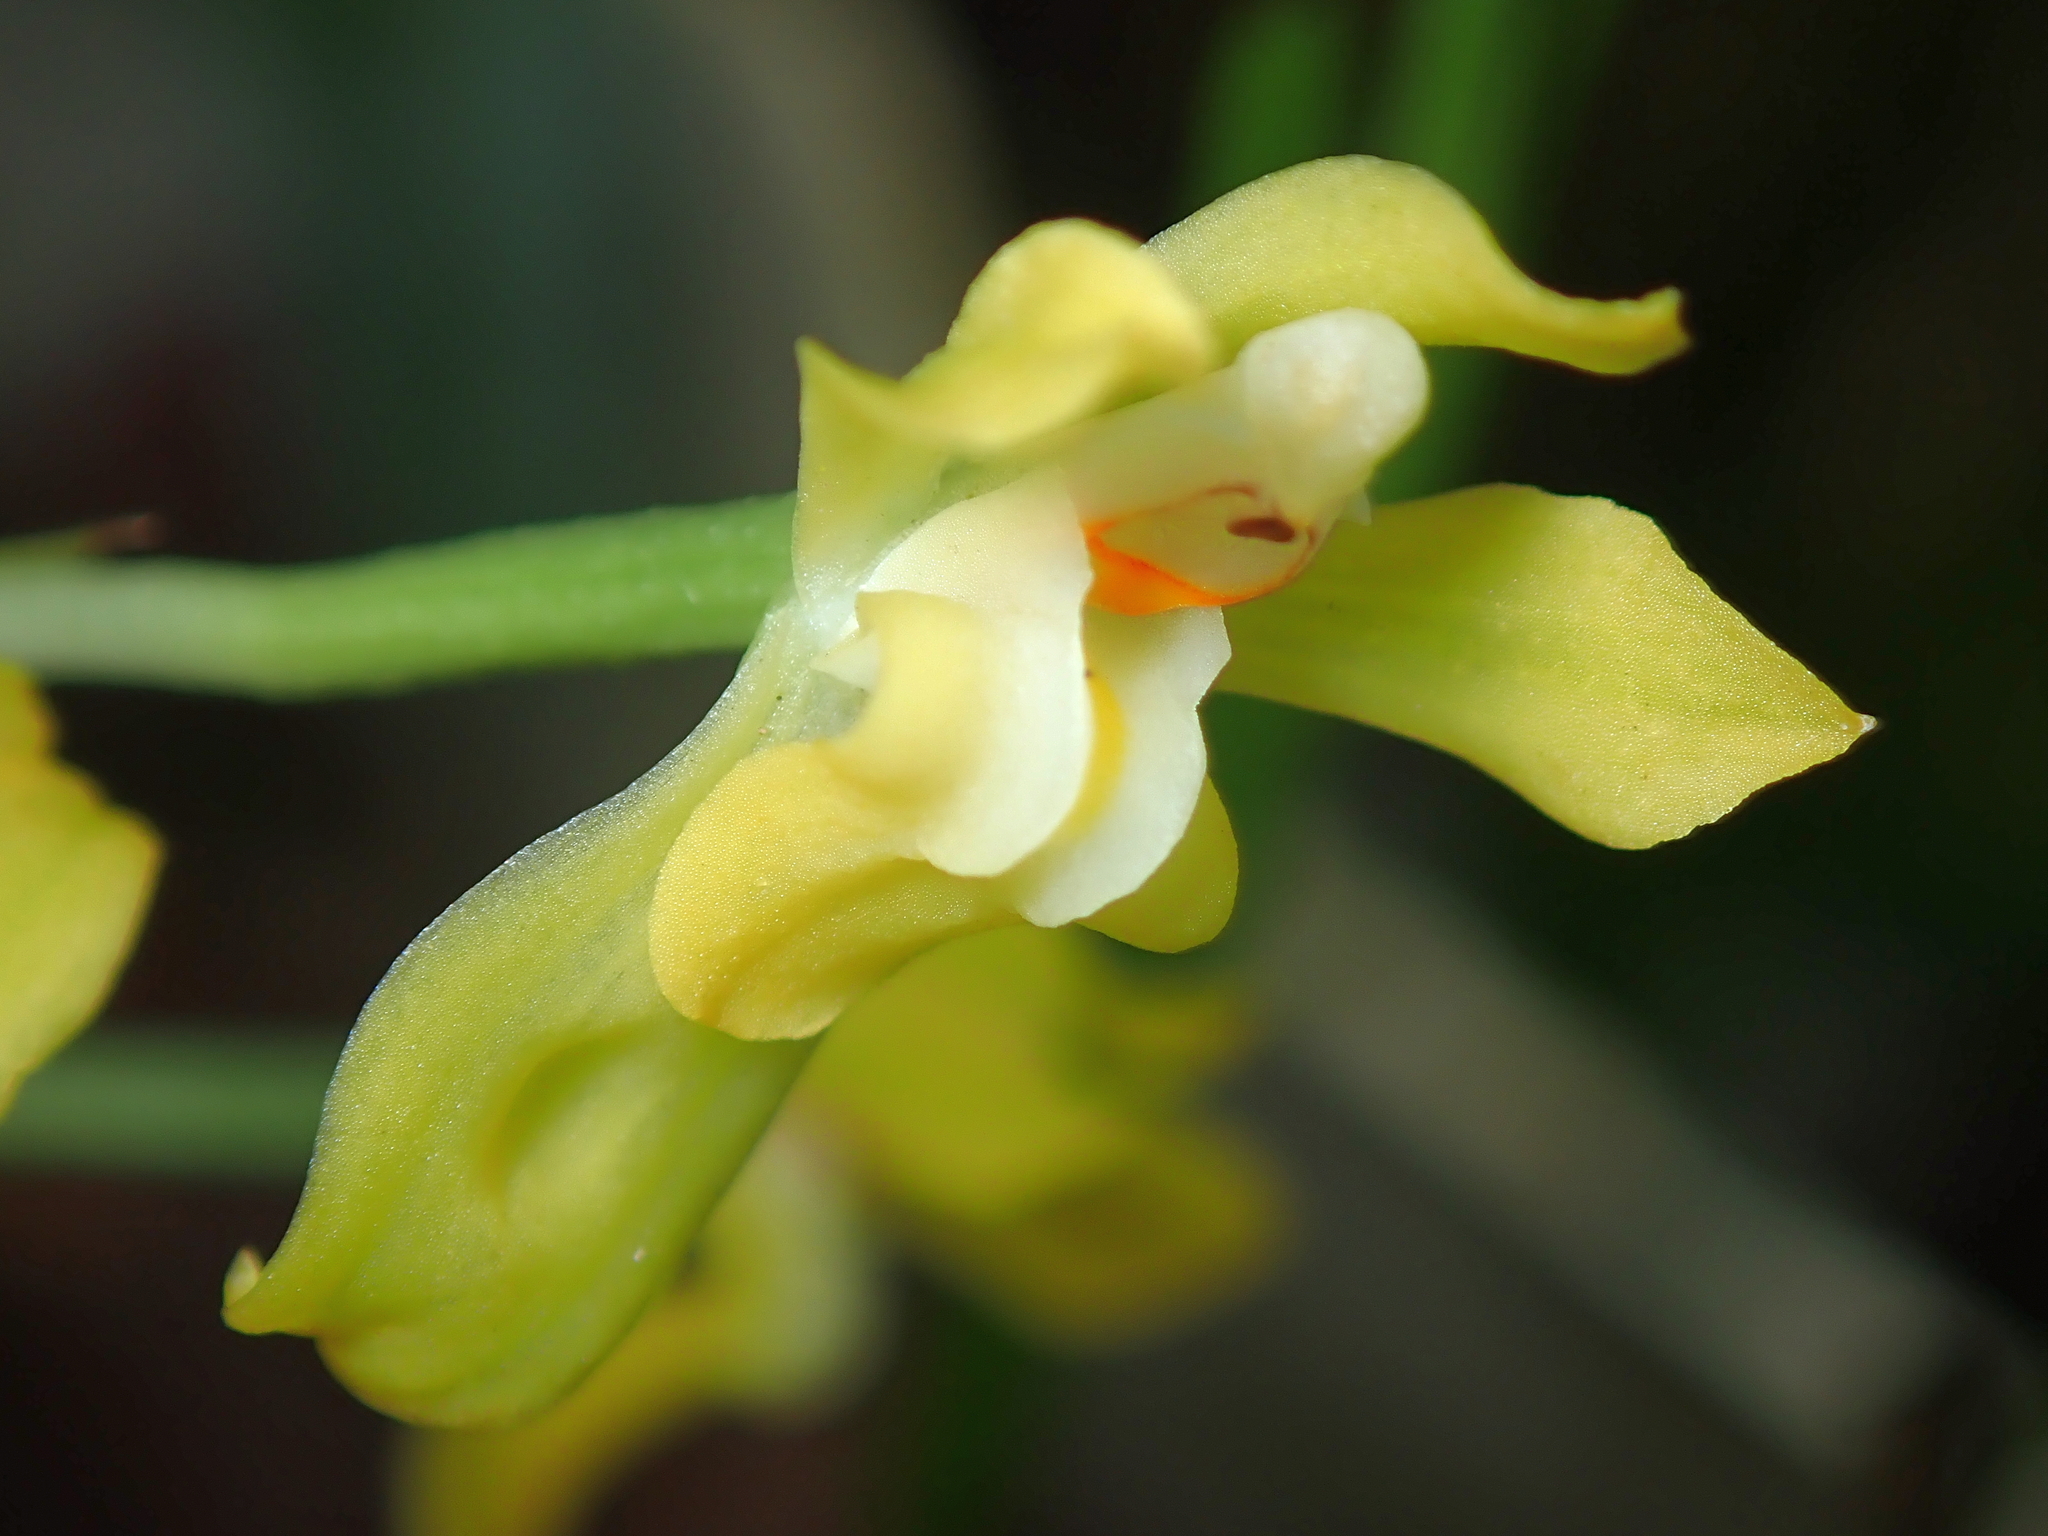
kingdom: Plantae
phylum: Tracheophyta
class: Liliopsida
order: Asparagales
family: Orchidaceae
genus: Gomesa
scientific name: Gomesa planifolia
